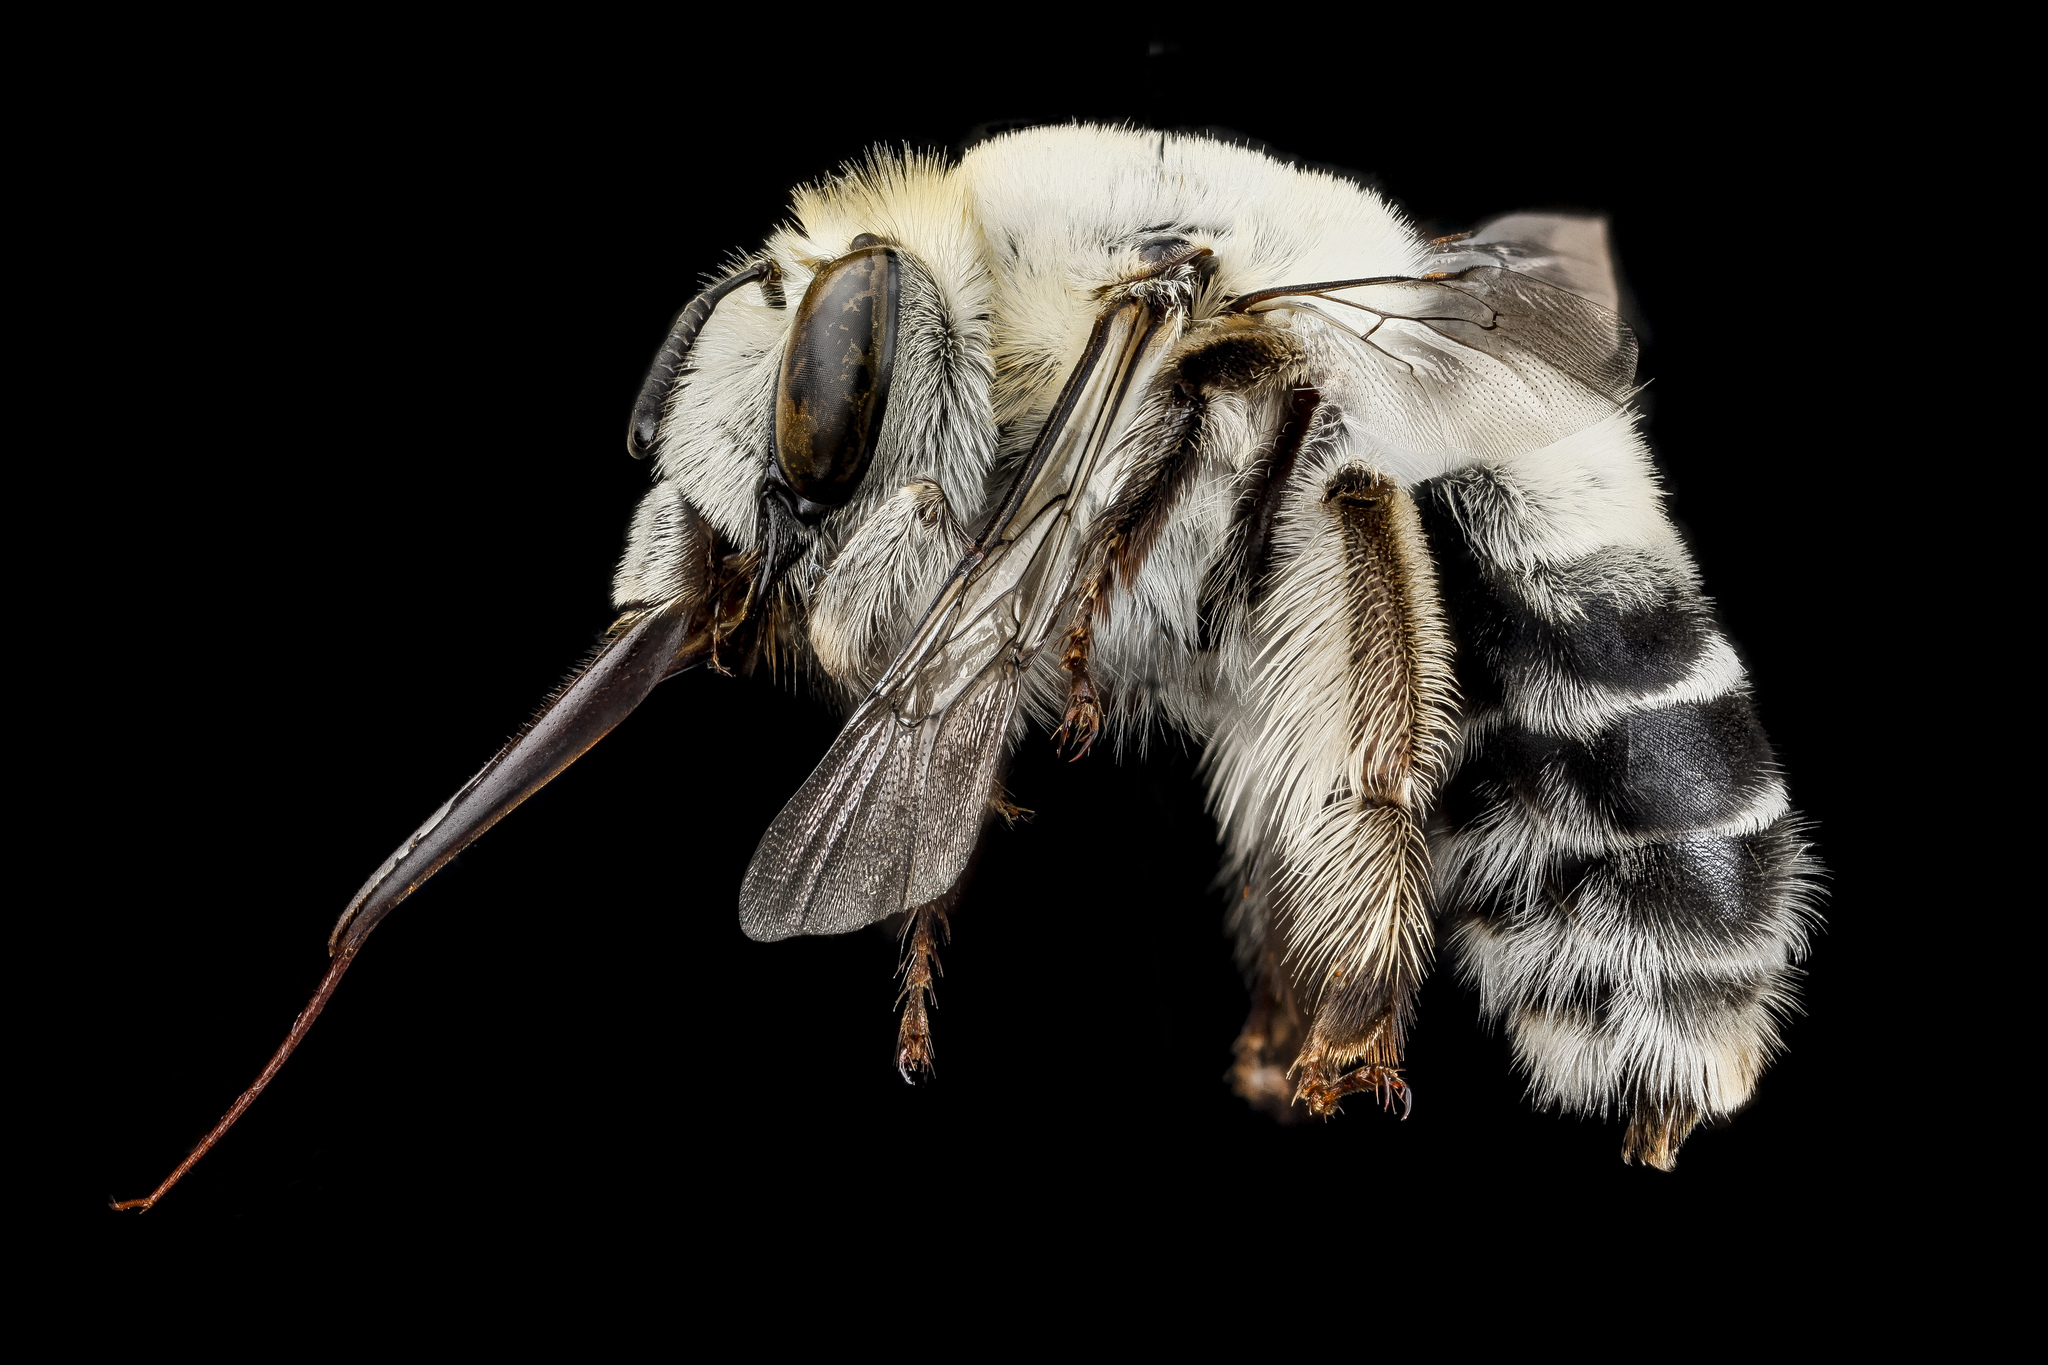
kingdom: Animalia
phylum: Arthropoda
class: Insecta
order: Hymenoptera
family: Apidae
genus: Anthophora
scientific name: Anthophora affabilis
